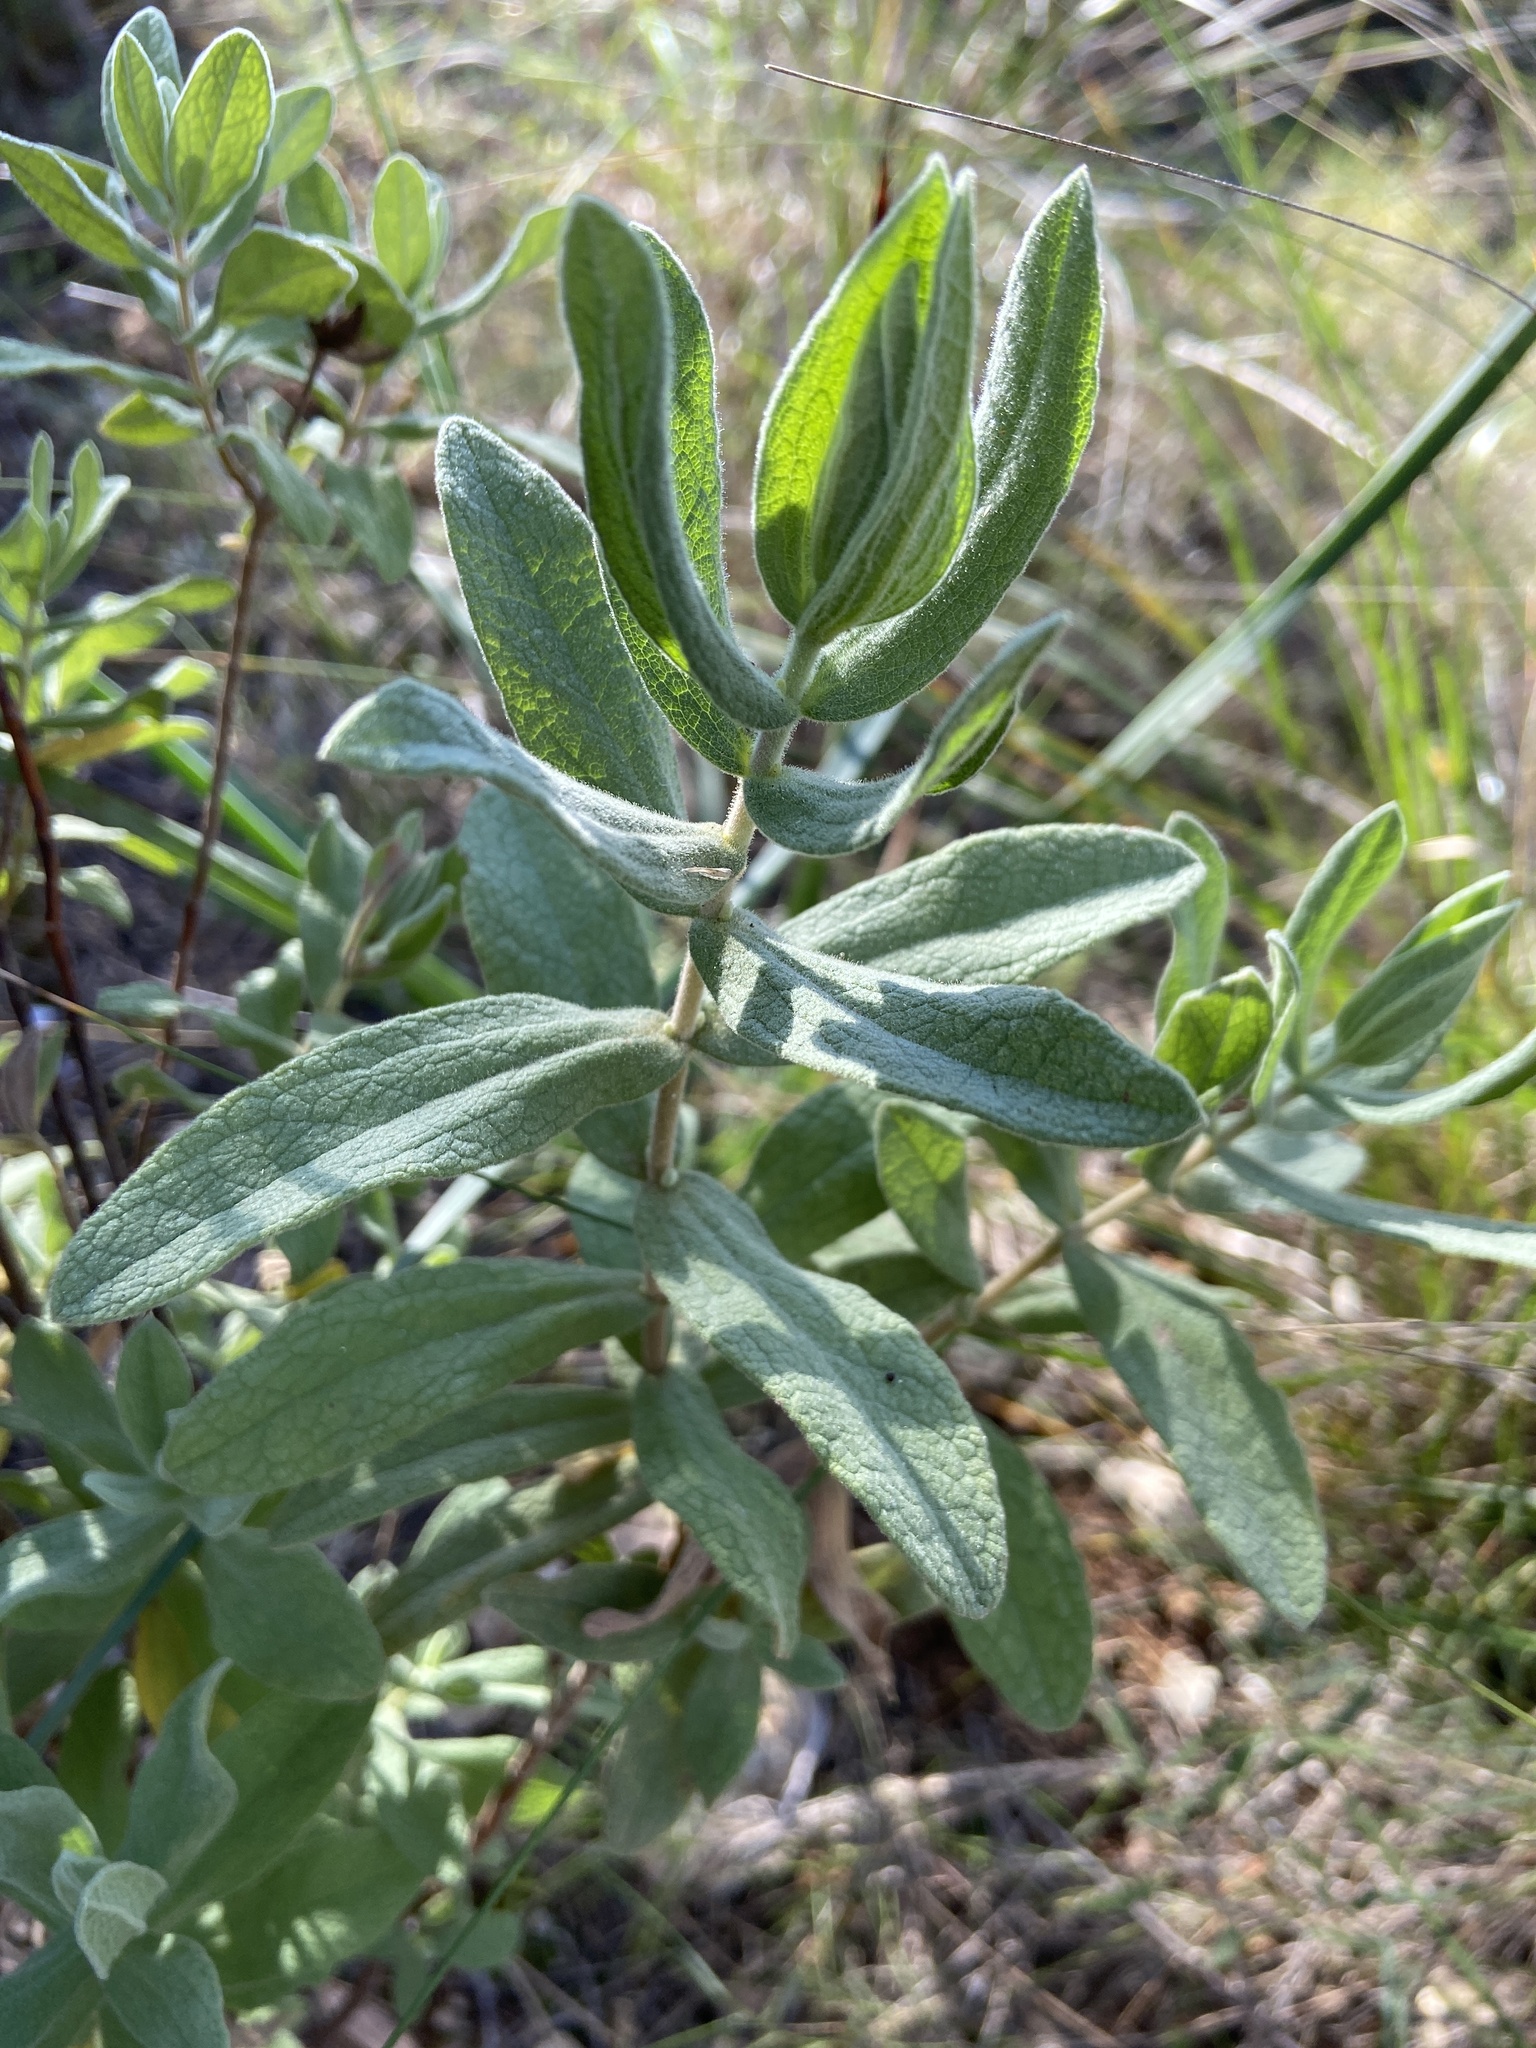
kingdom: Plantae
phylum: Tracheophyta
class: Magnoliopsida
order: Malvales
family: Cistaceae
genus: Cistus
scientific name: Cistus albidus
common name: White-leaf rock-rose
